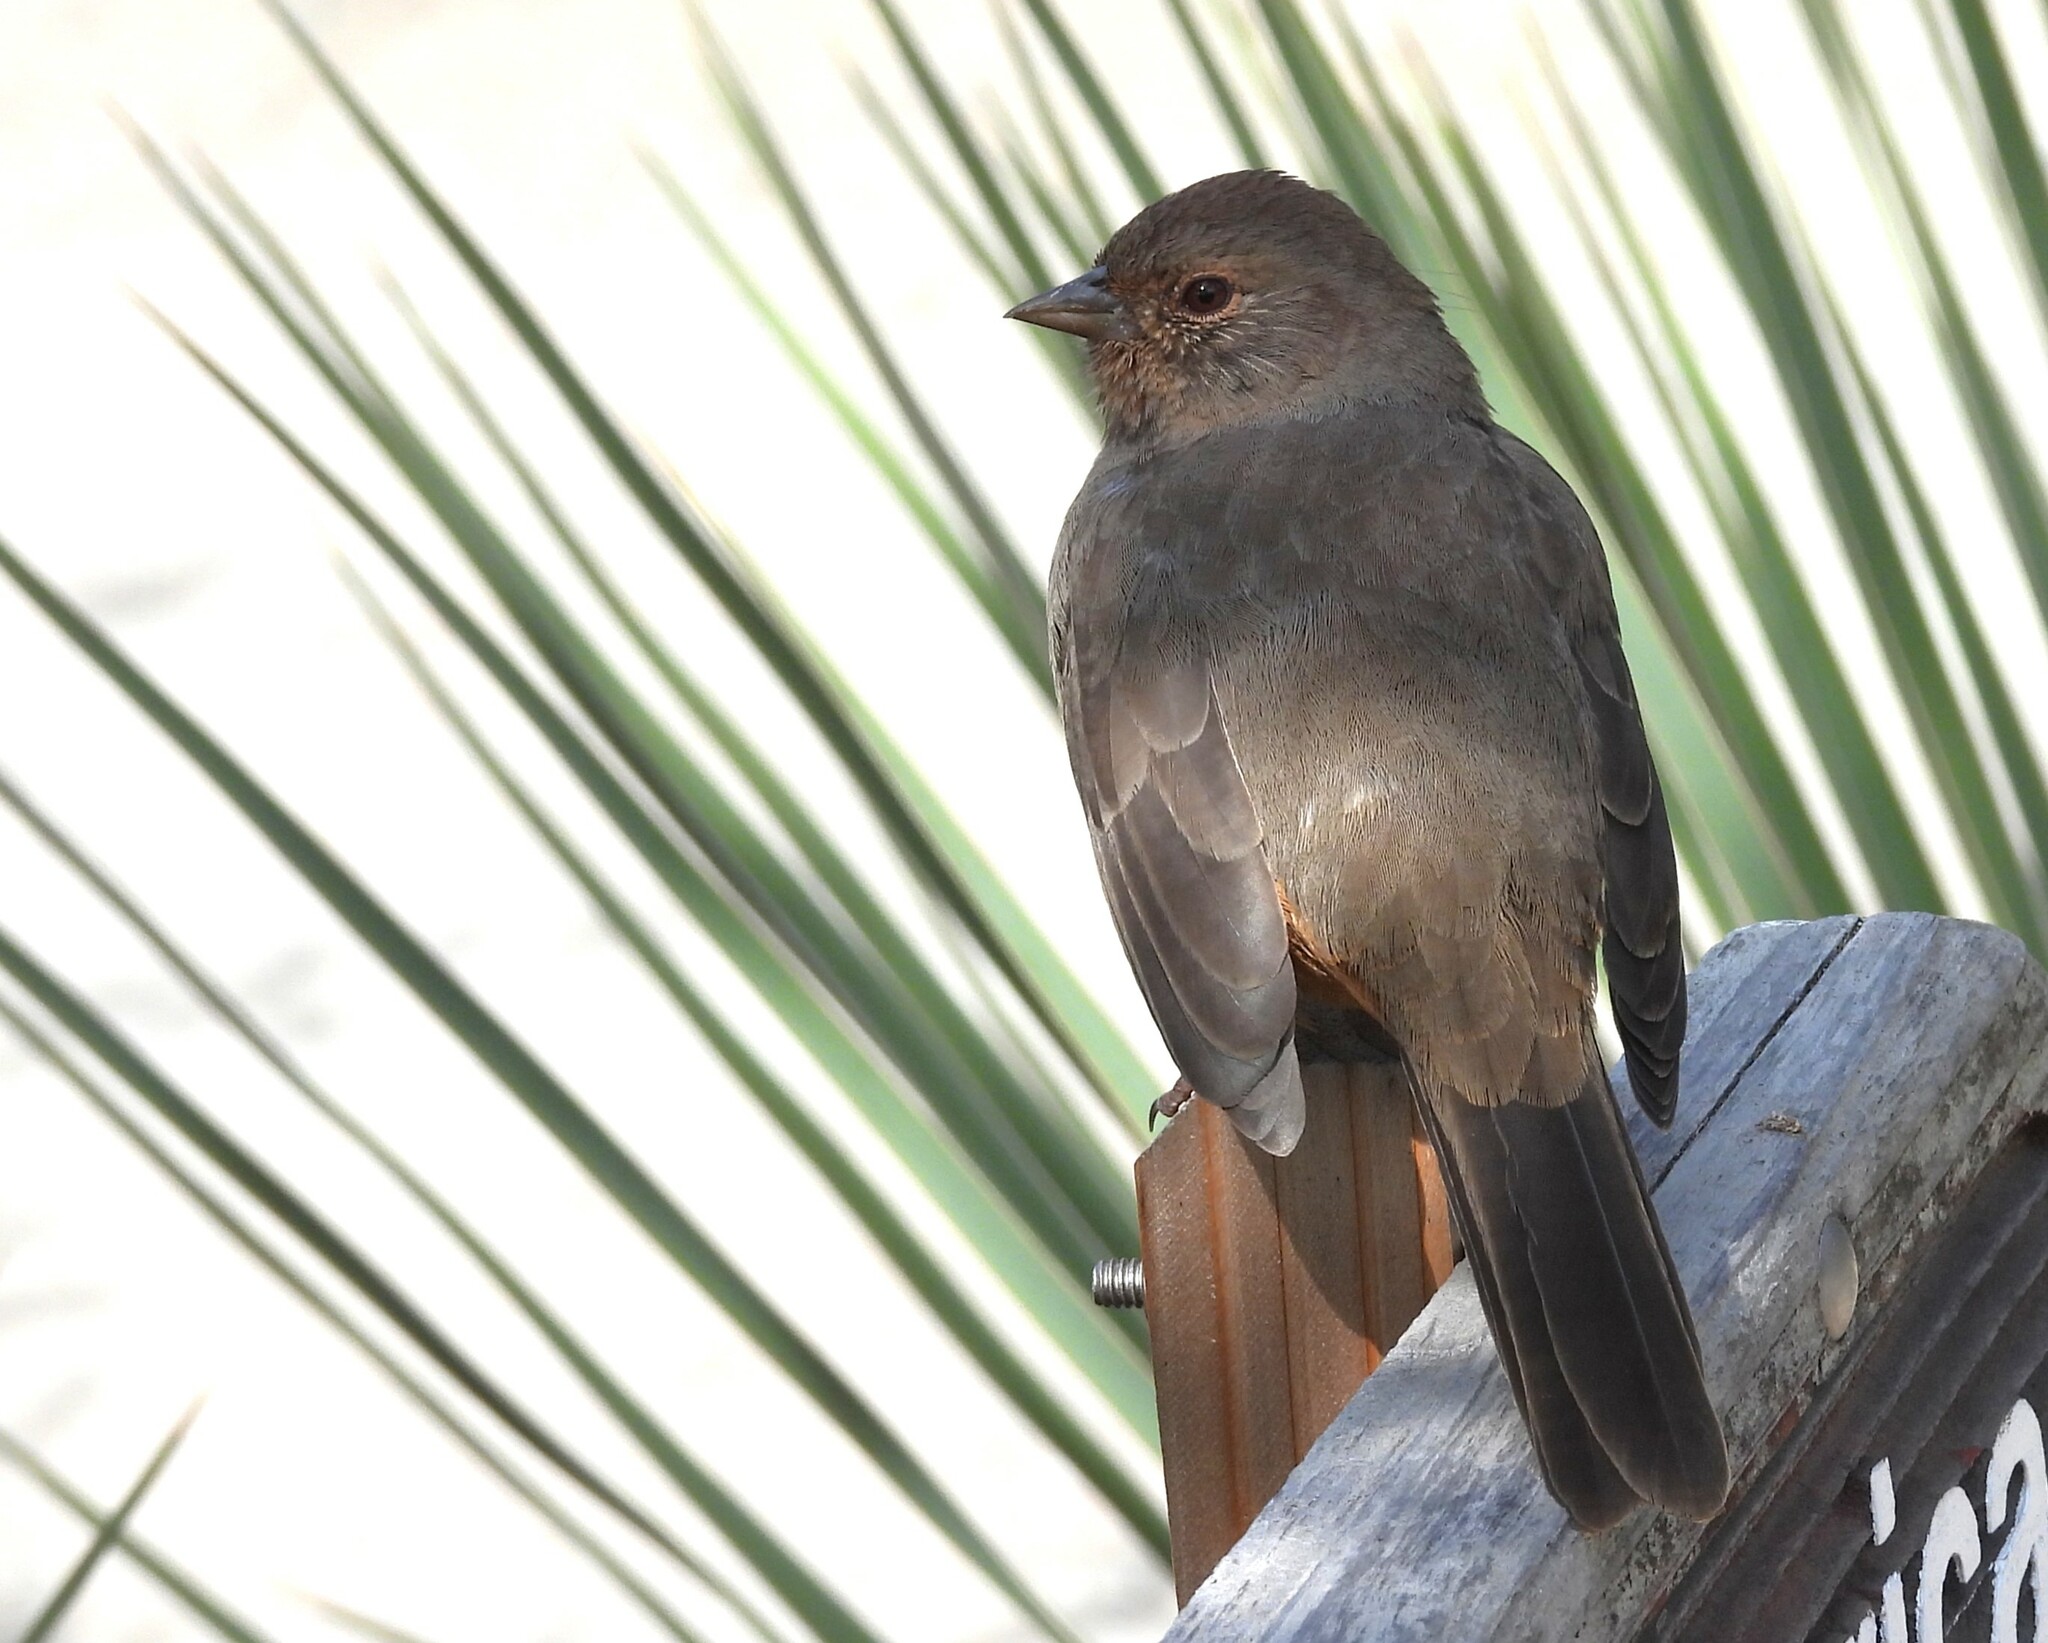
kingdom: Animalia
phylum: Chordata
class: Aves
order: Passeriformes
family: Passerellidae
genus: Melozone
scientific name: Melozone crissalis
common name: California towhee
